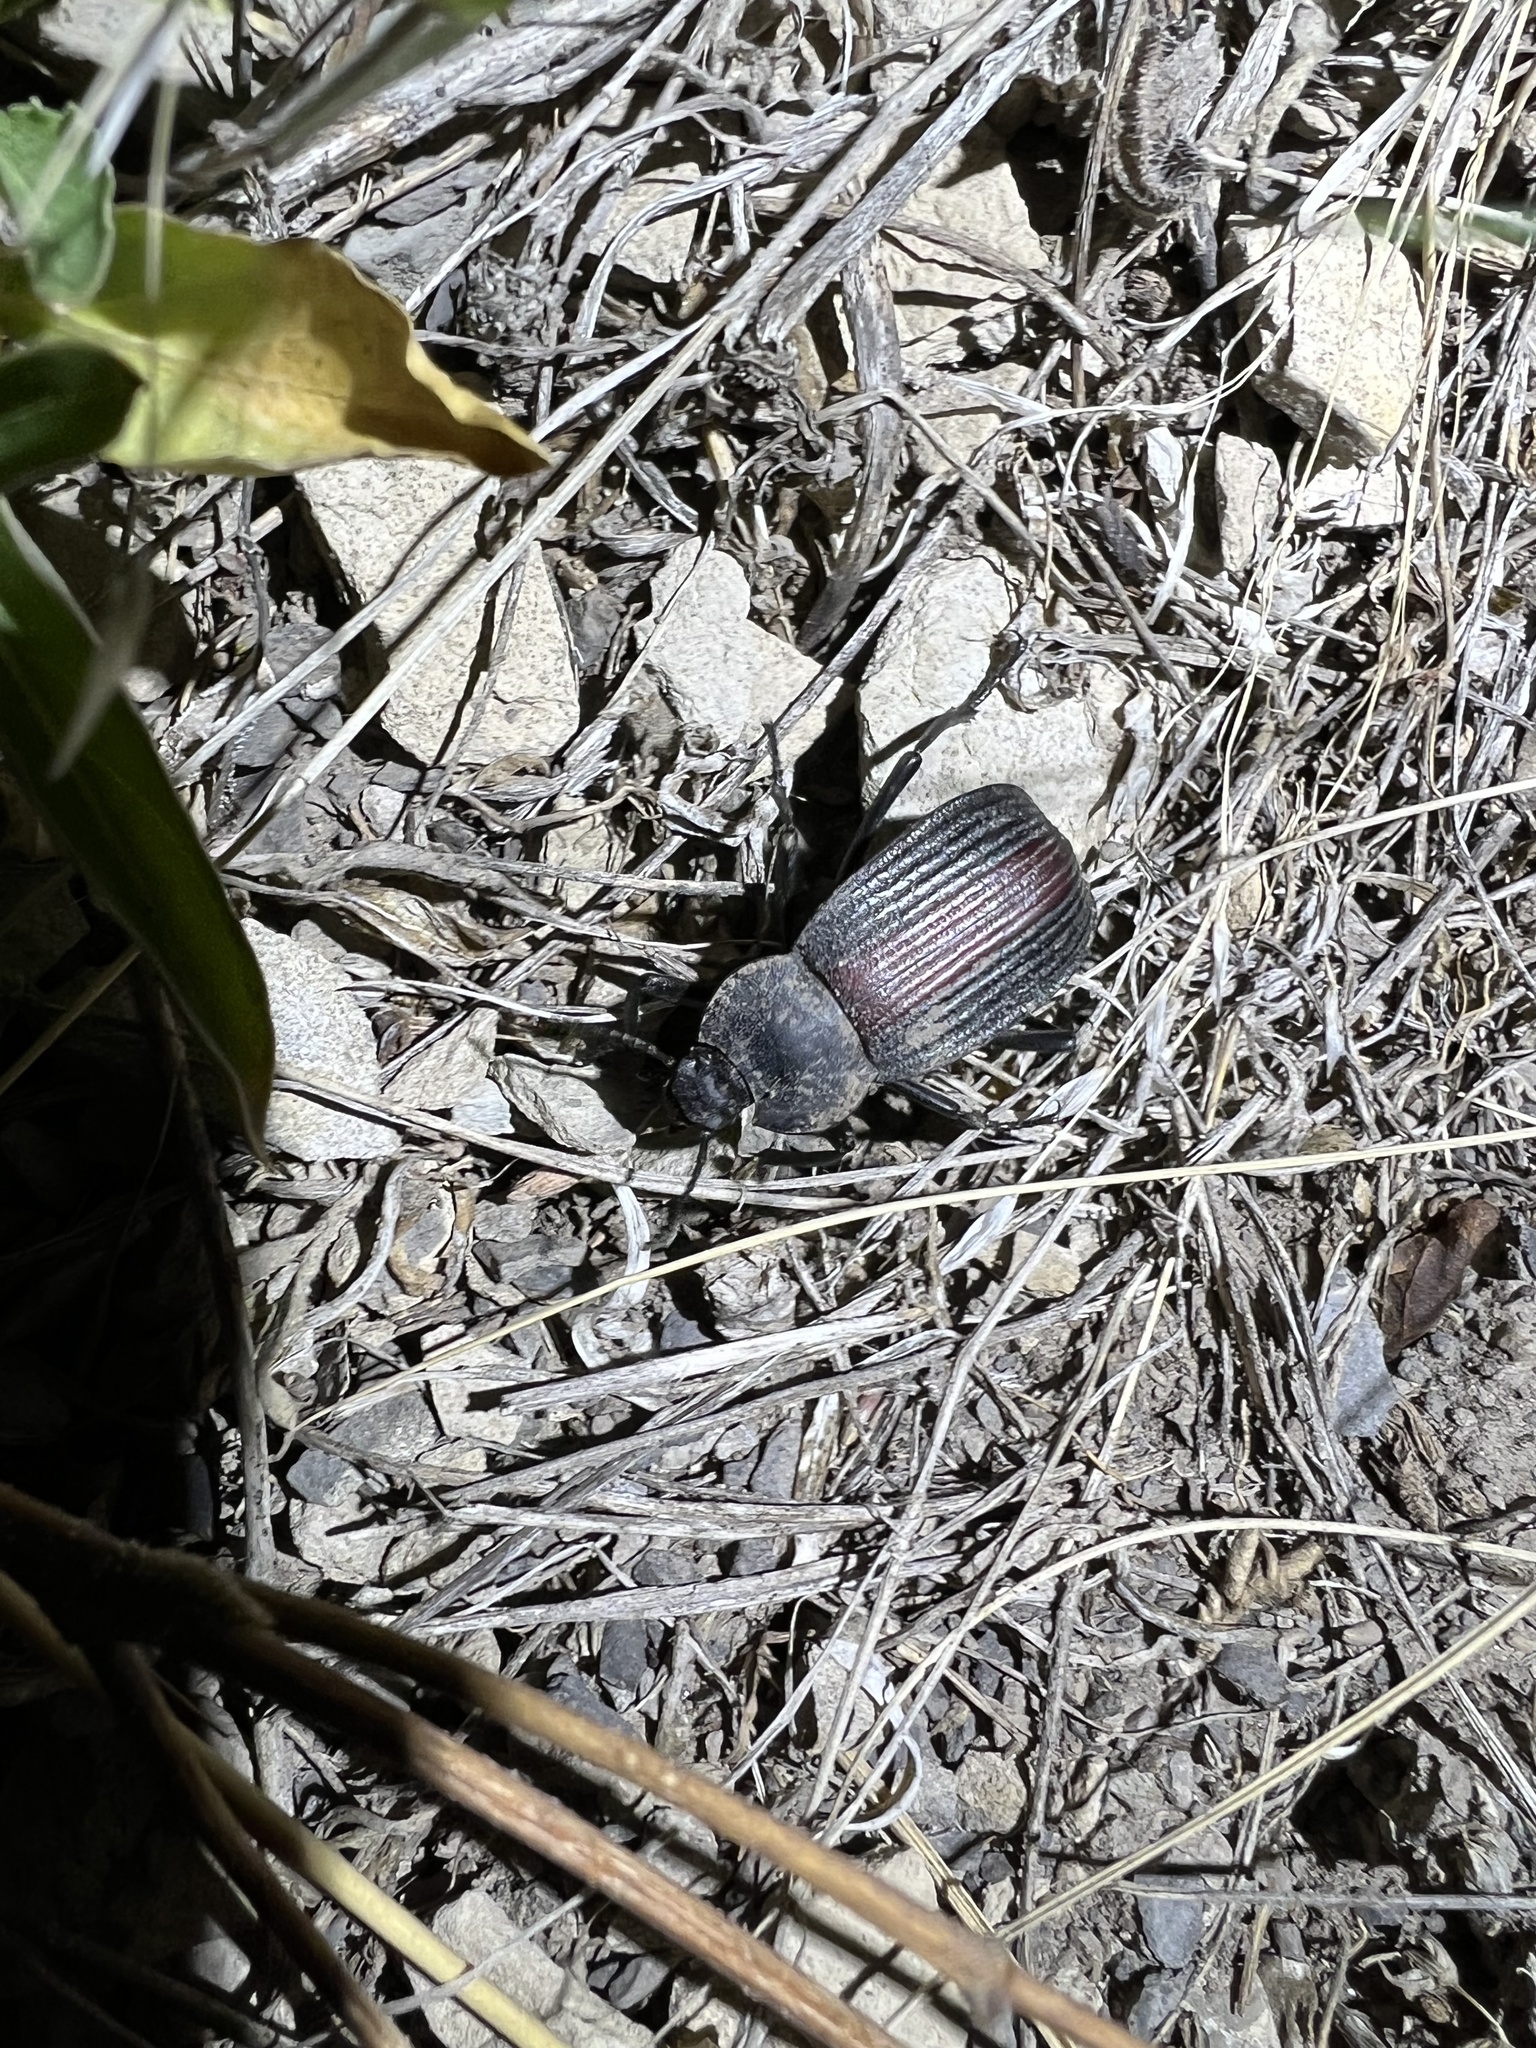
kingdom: Animalia
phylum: Arthropoda
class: Insecta
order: Coleoptera
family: Tenebrionidae
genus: Eleodes
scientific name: Eleodes suturalis
